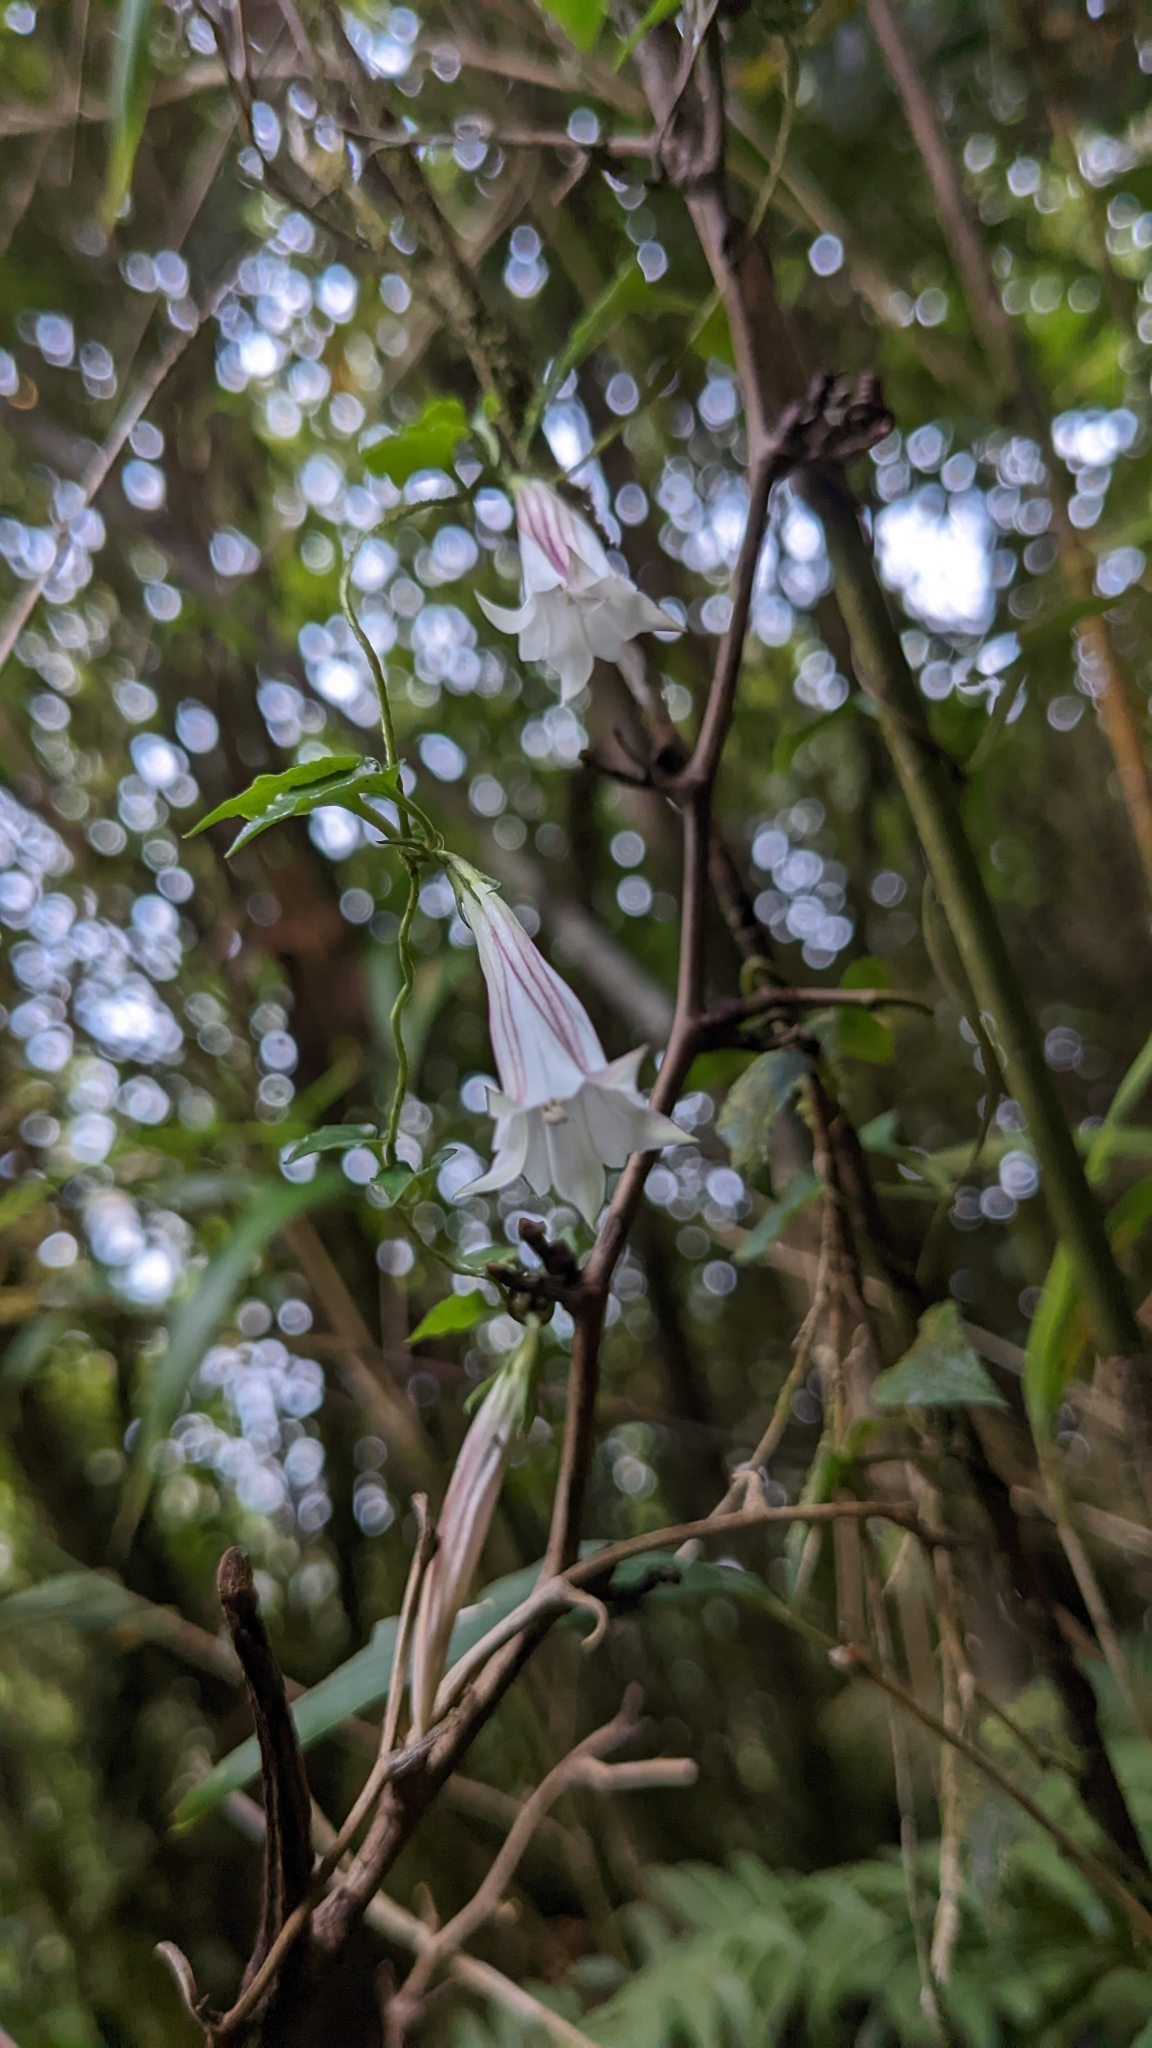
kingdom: Plantae
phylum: Tracheophyta
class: Magnoliopsida
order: Gentianales
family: Gentianaceae
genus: Tripterospermum
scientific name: Tripterospermum luzonense
